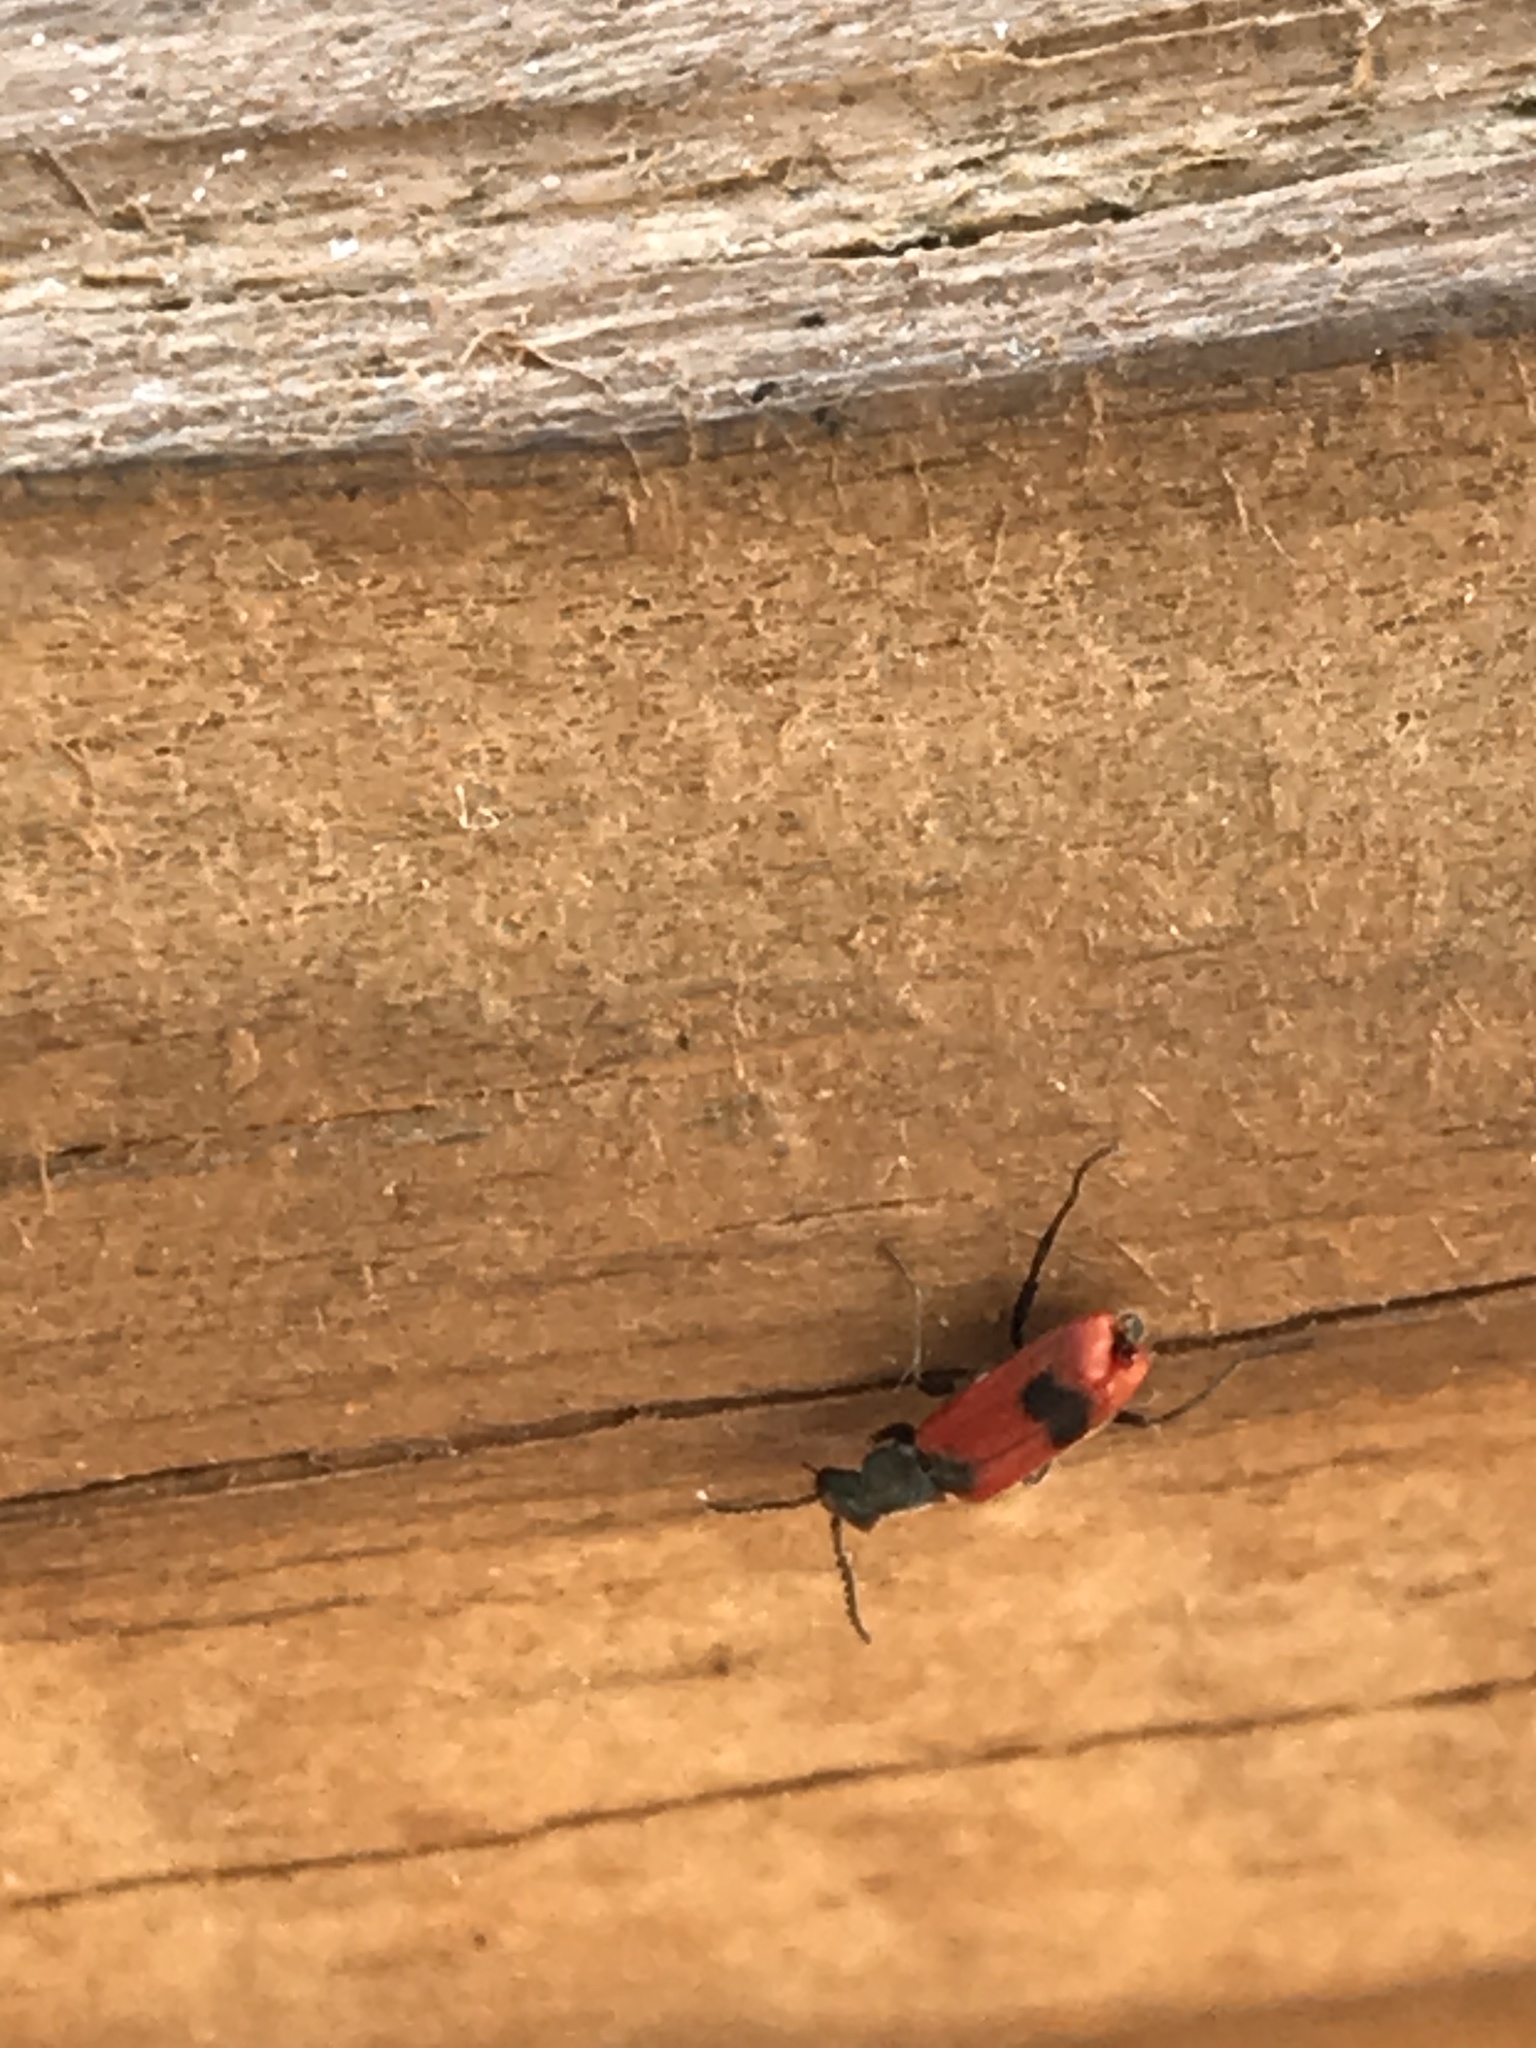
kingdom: Animalia
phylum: Arthropoda
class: Insecta
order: Coleoptera
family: Melyridae
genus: Anthocomus
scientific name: Anthocomus equestris
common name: Black-banded soft-winged flower beetle
